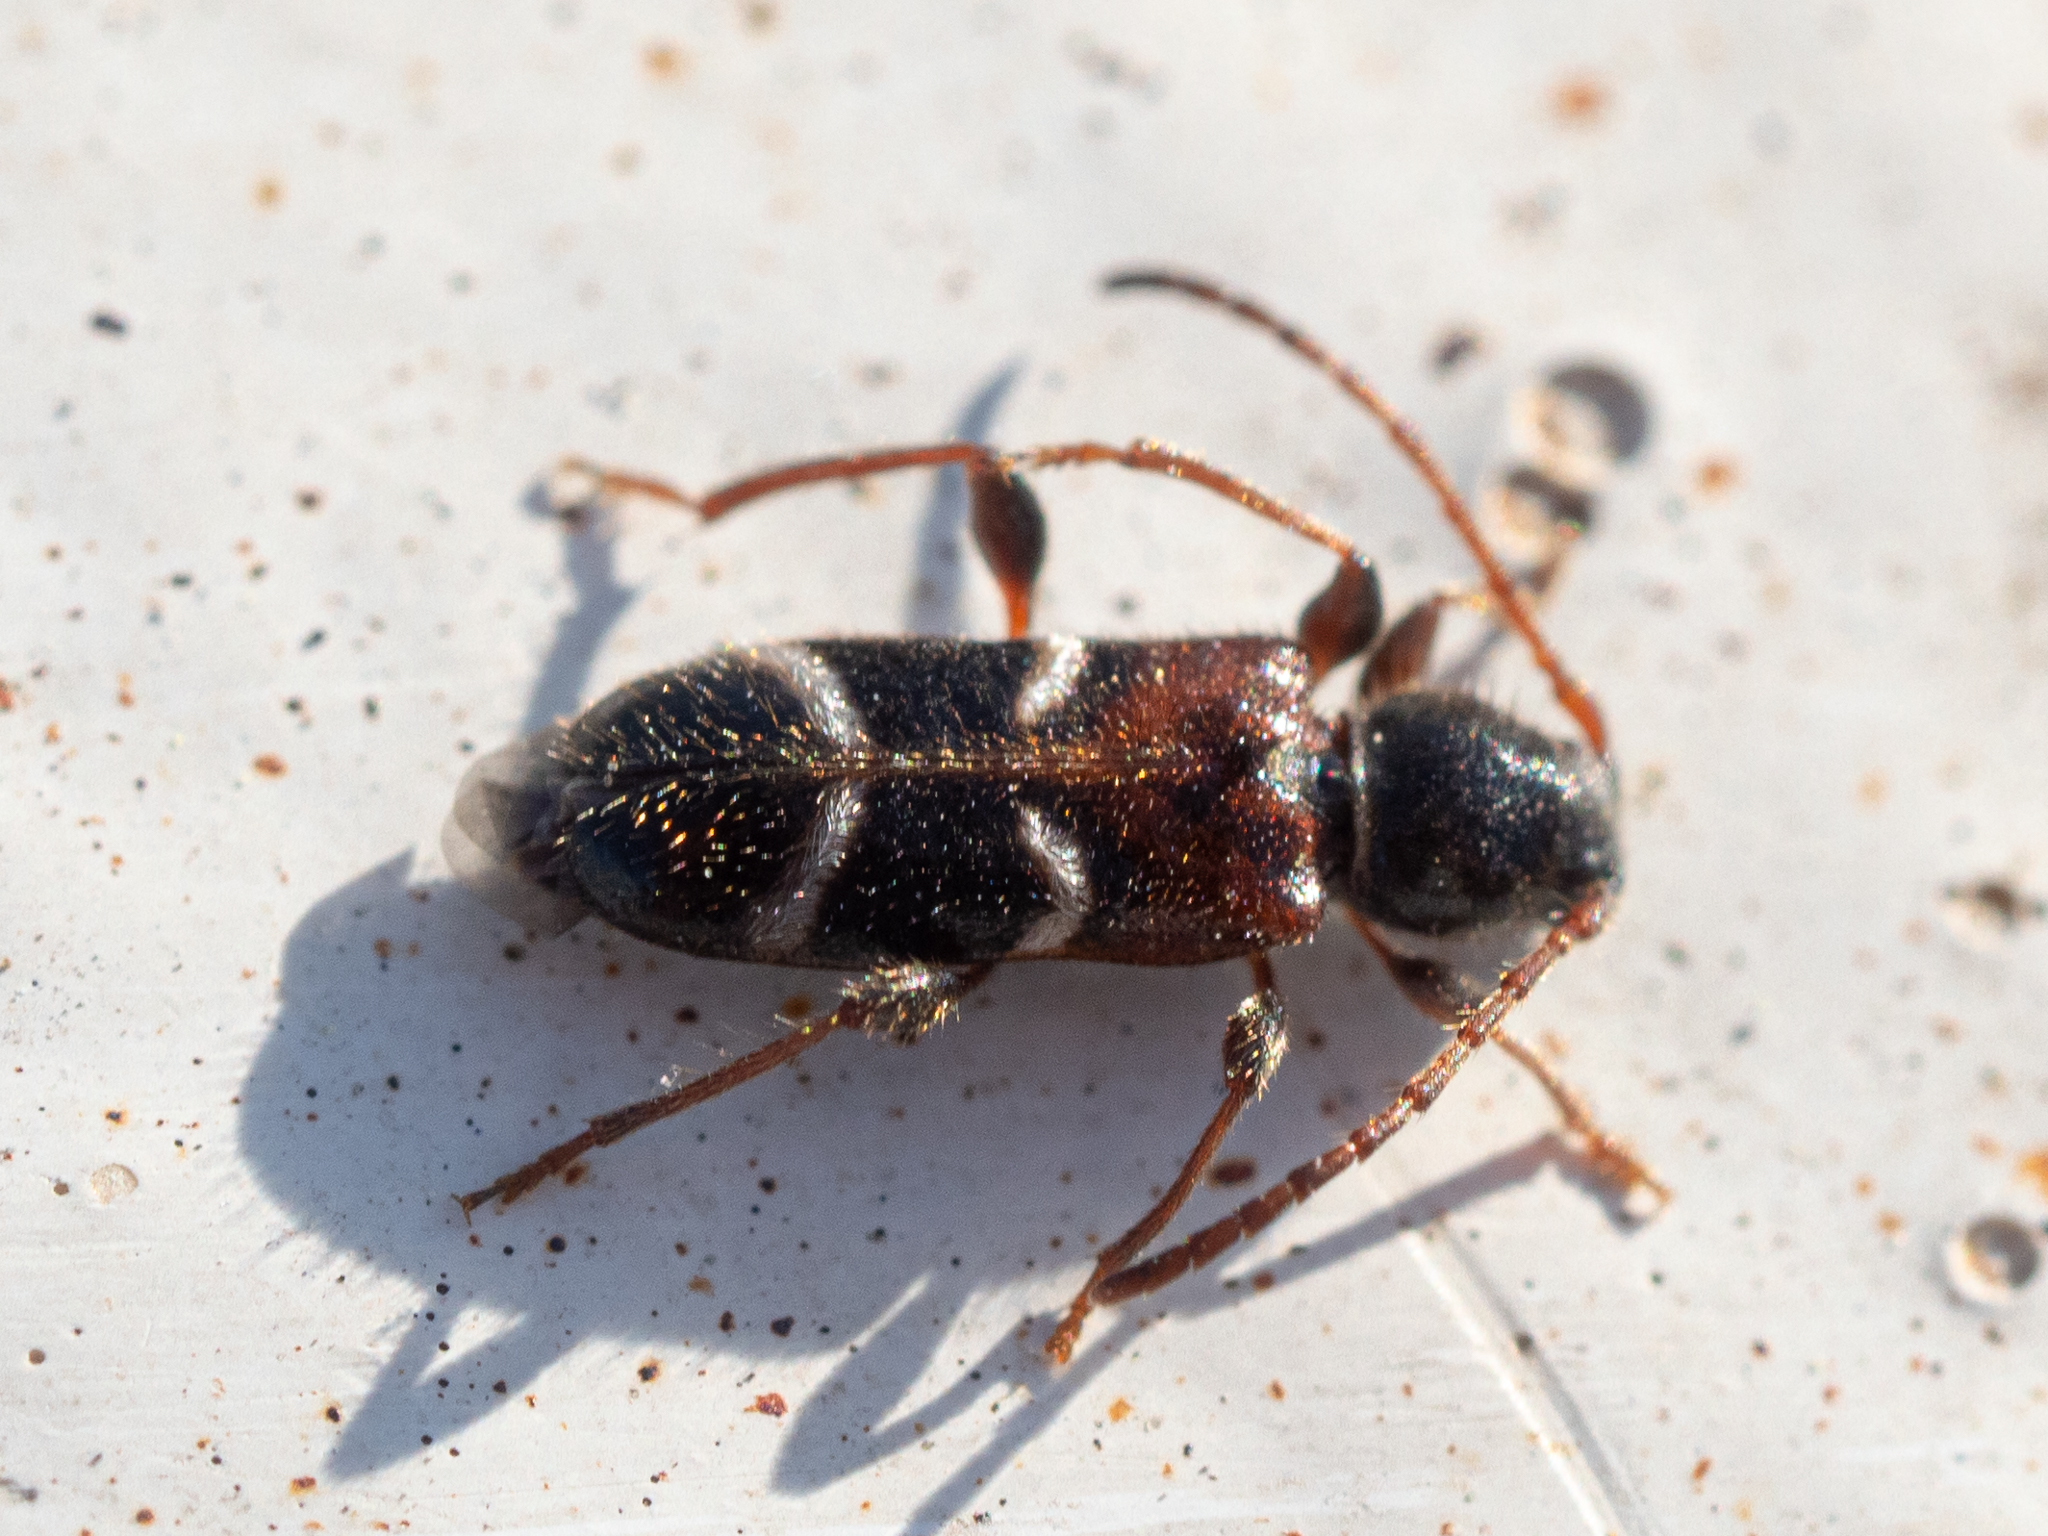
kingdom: Animalia
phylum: Arthropoda
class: Insecta
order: Coleoptera
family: Cerambycidae
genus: Poecilium
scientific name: Poecilium alni
